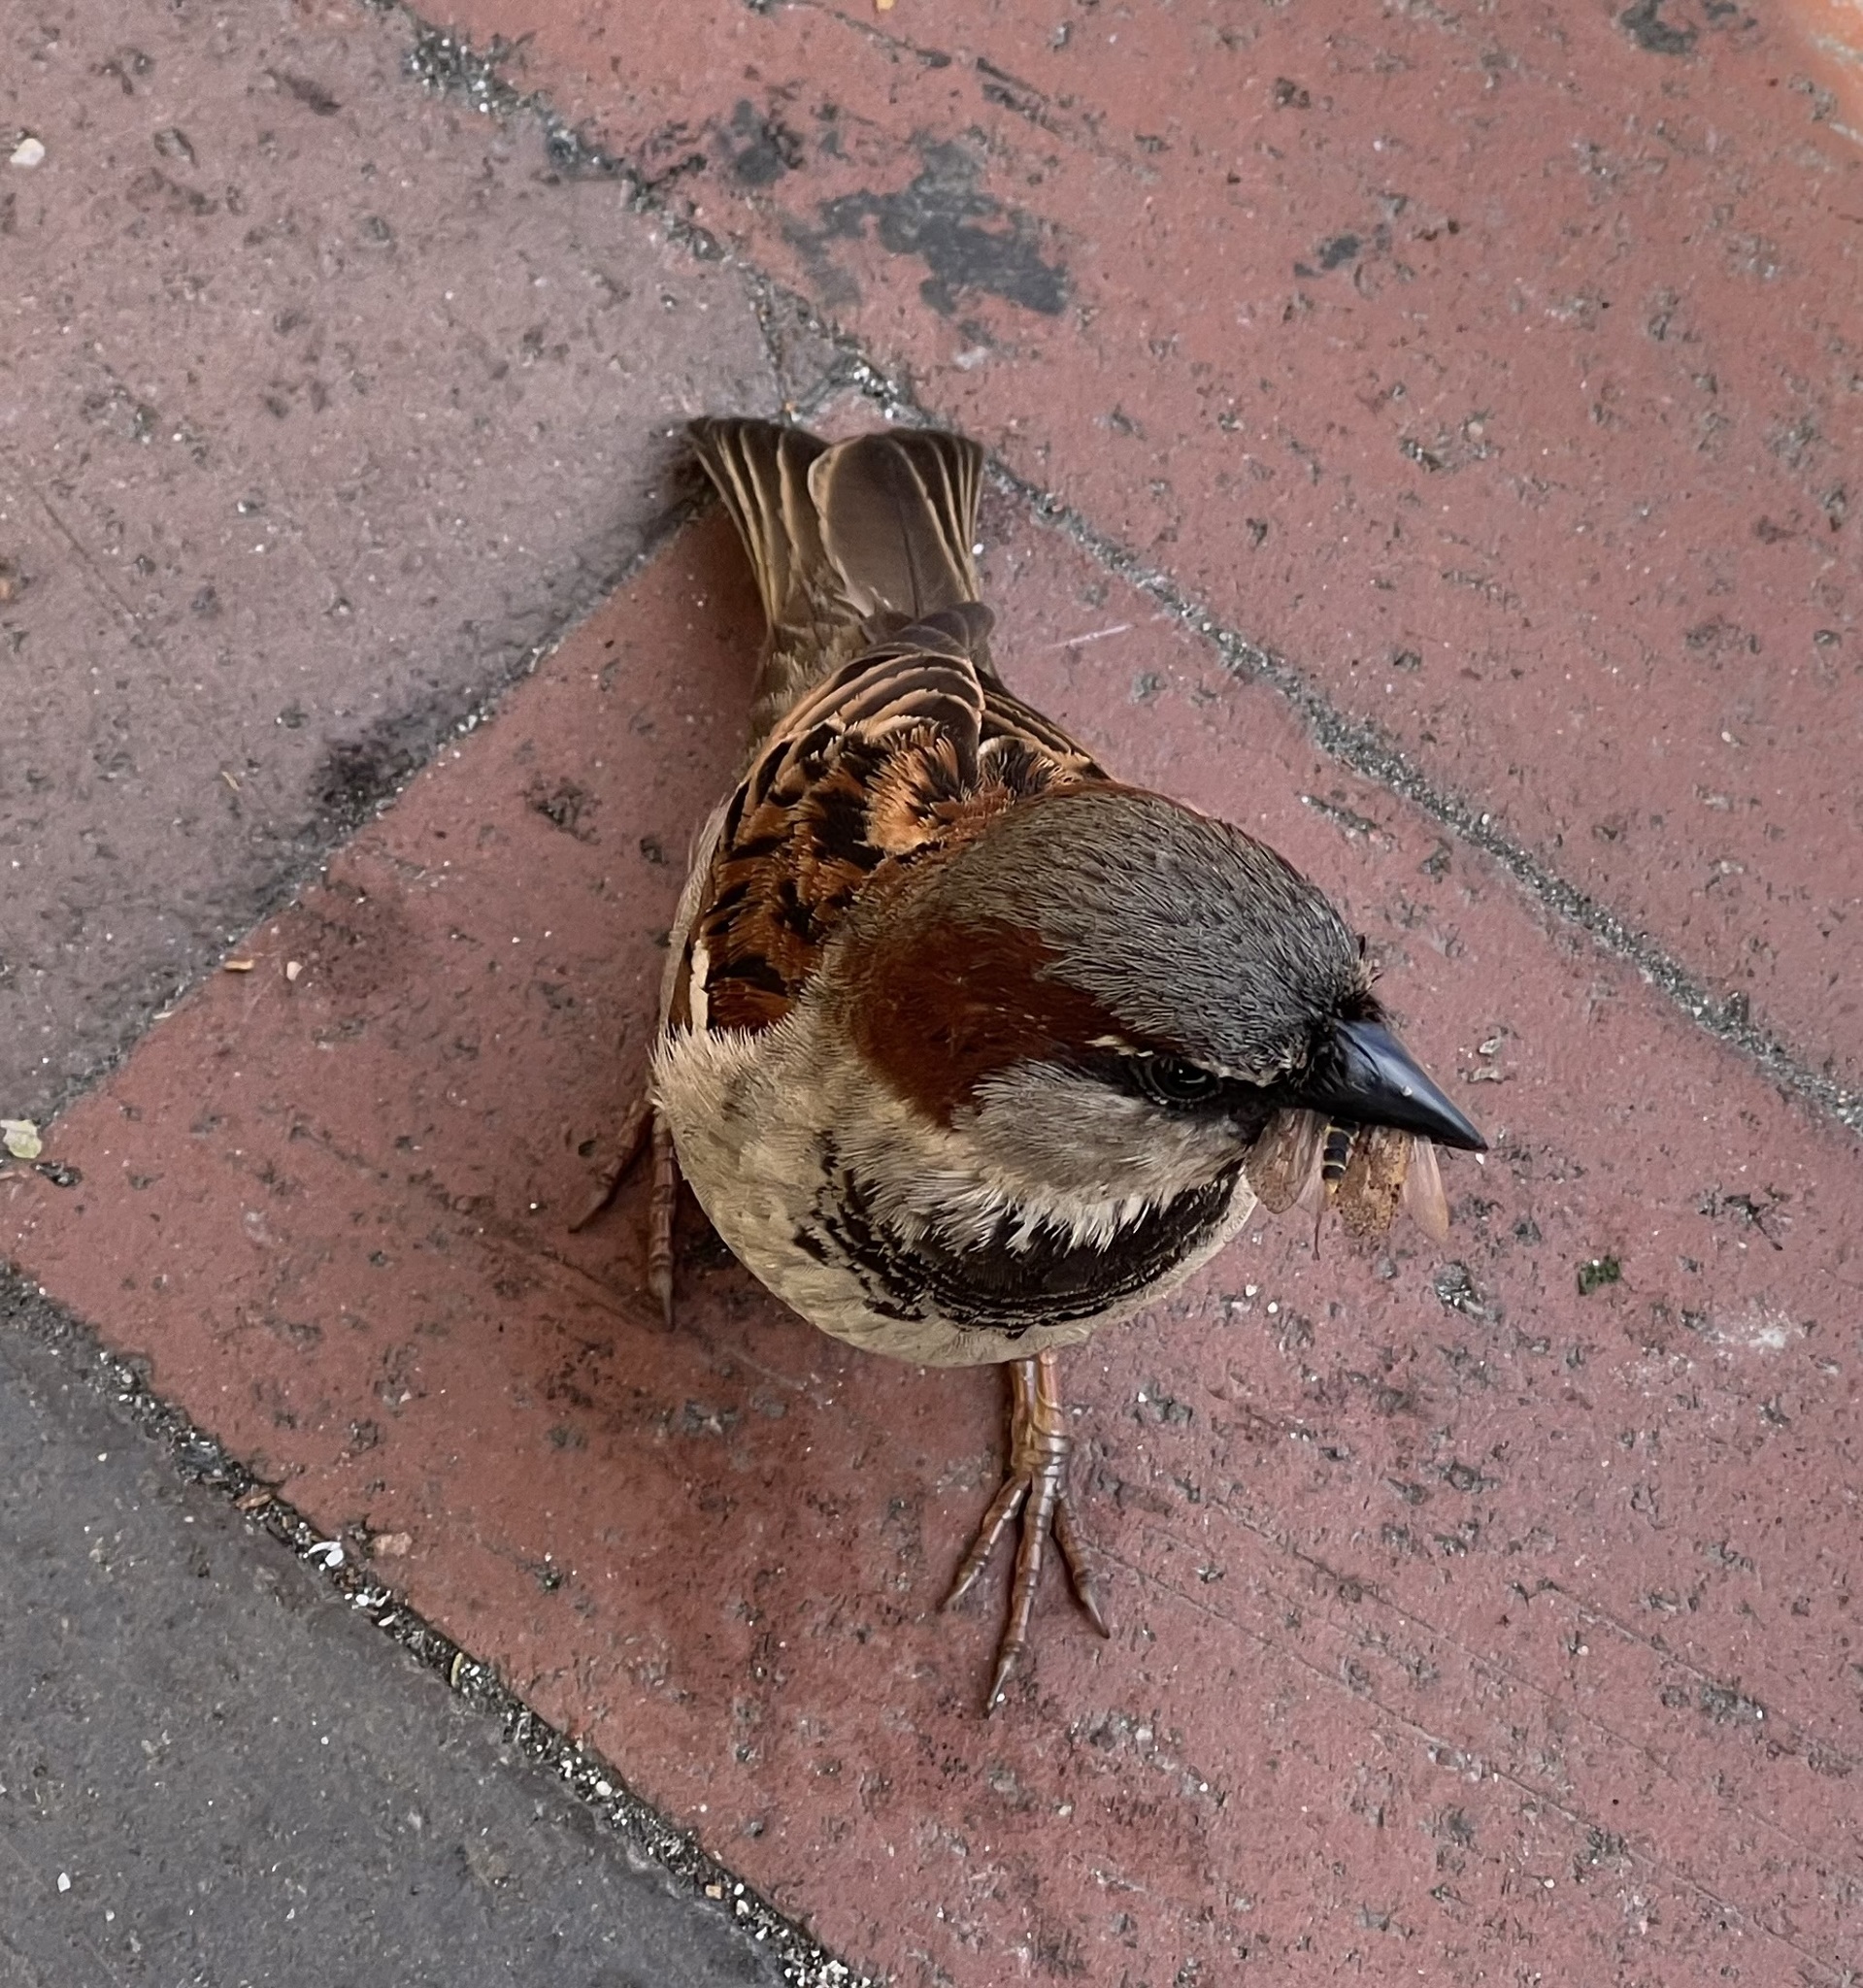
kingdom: Animalia
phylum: Chordata
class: Aves
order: Passeriformes
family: Passeridae
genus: Passer
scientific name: Passer domesticus
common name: House sparrow
